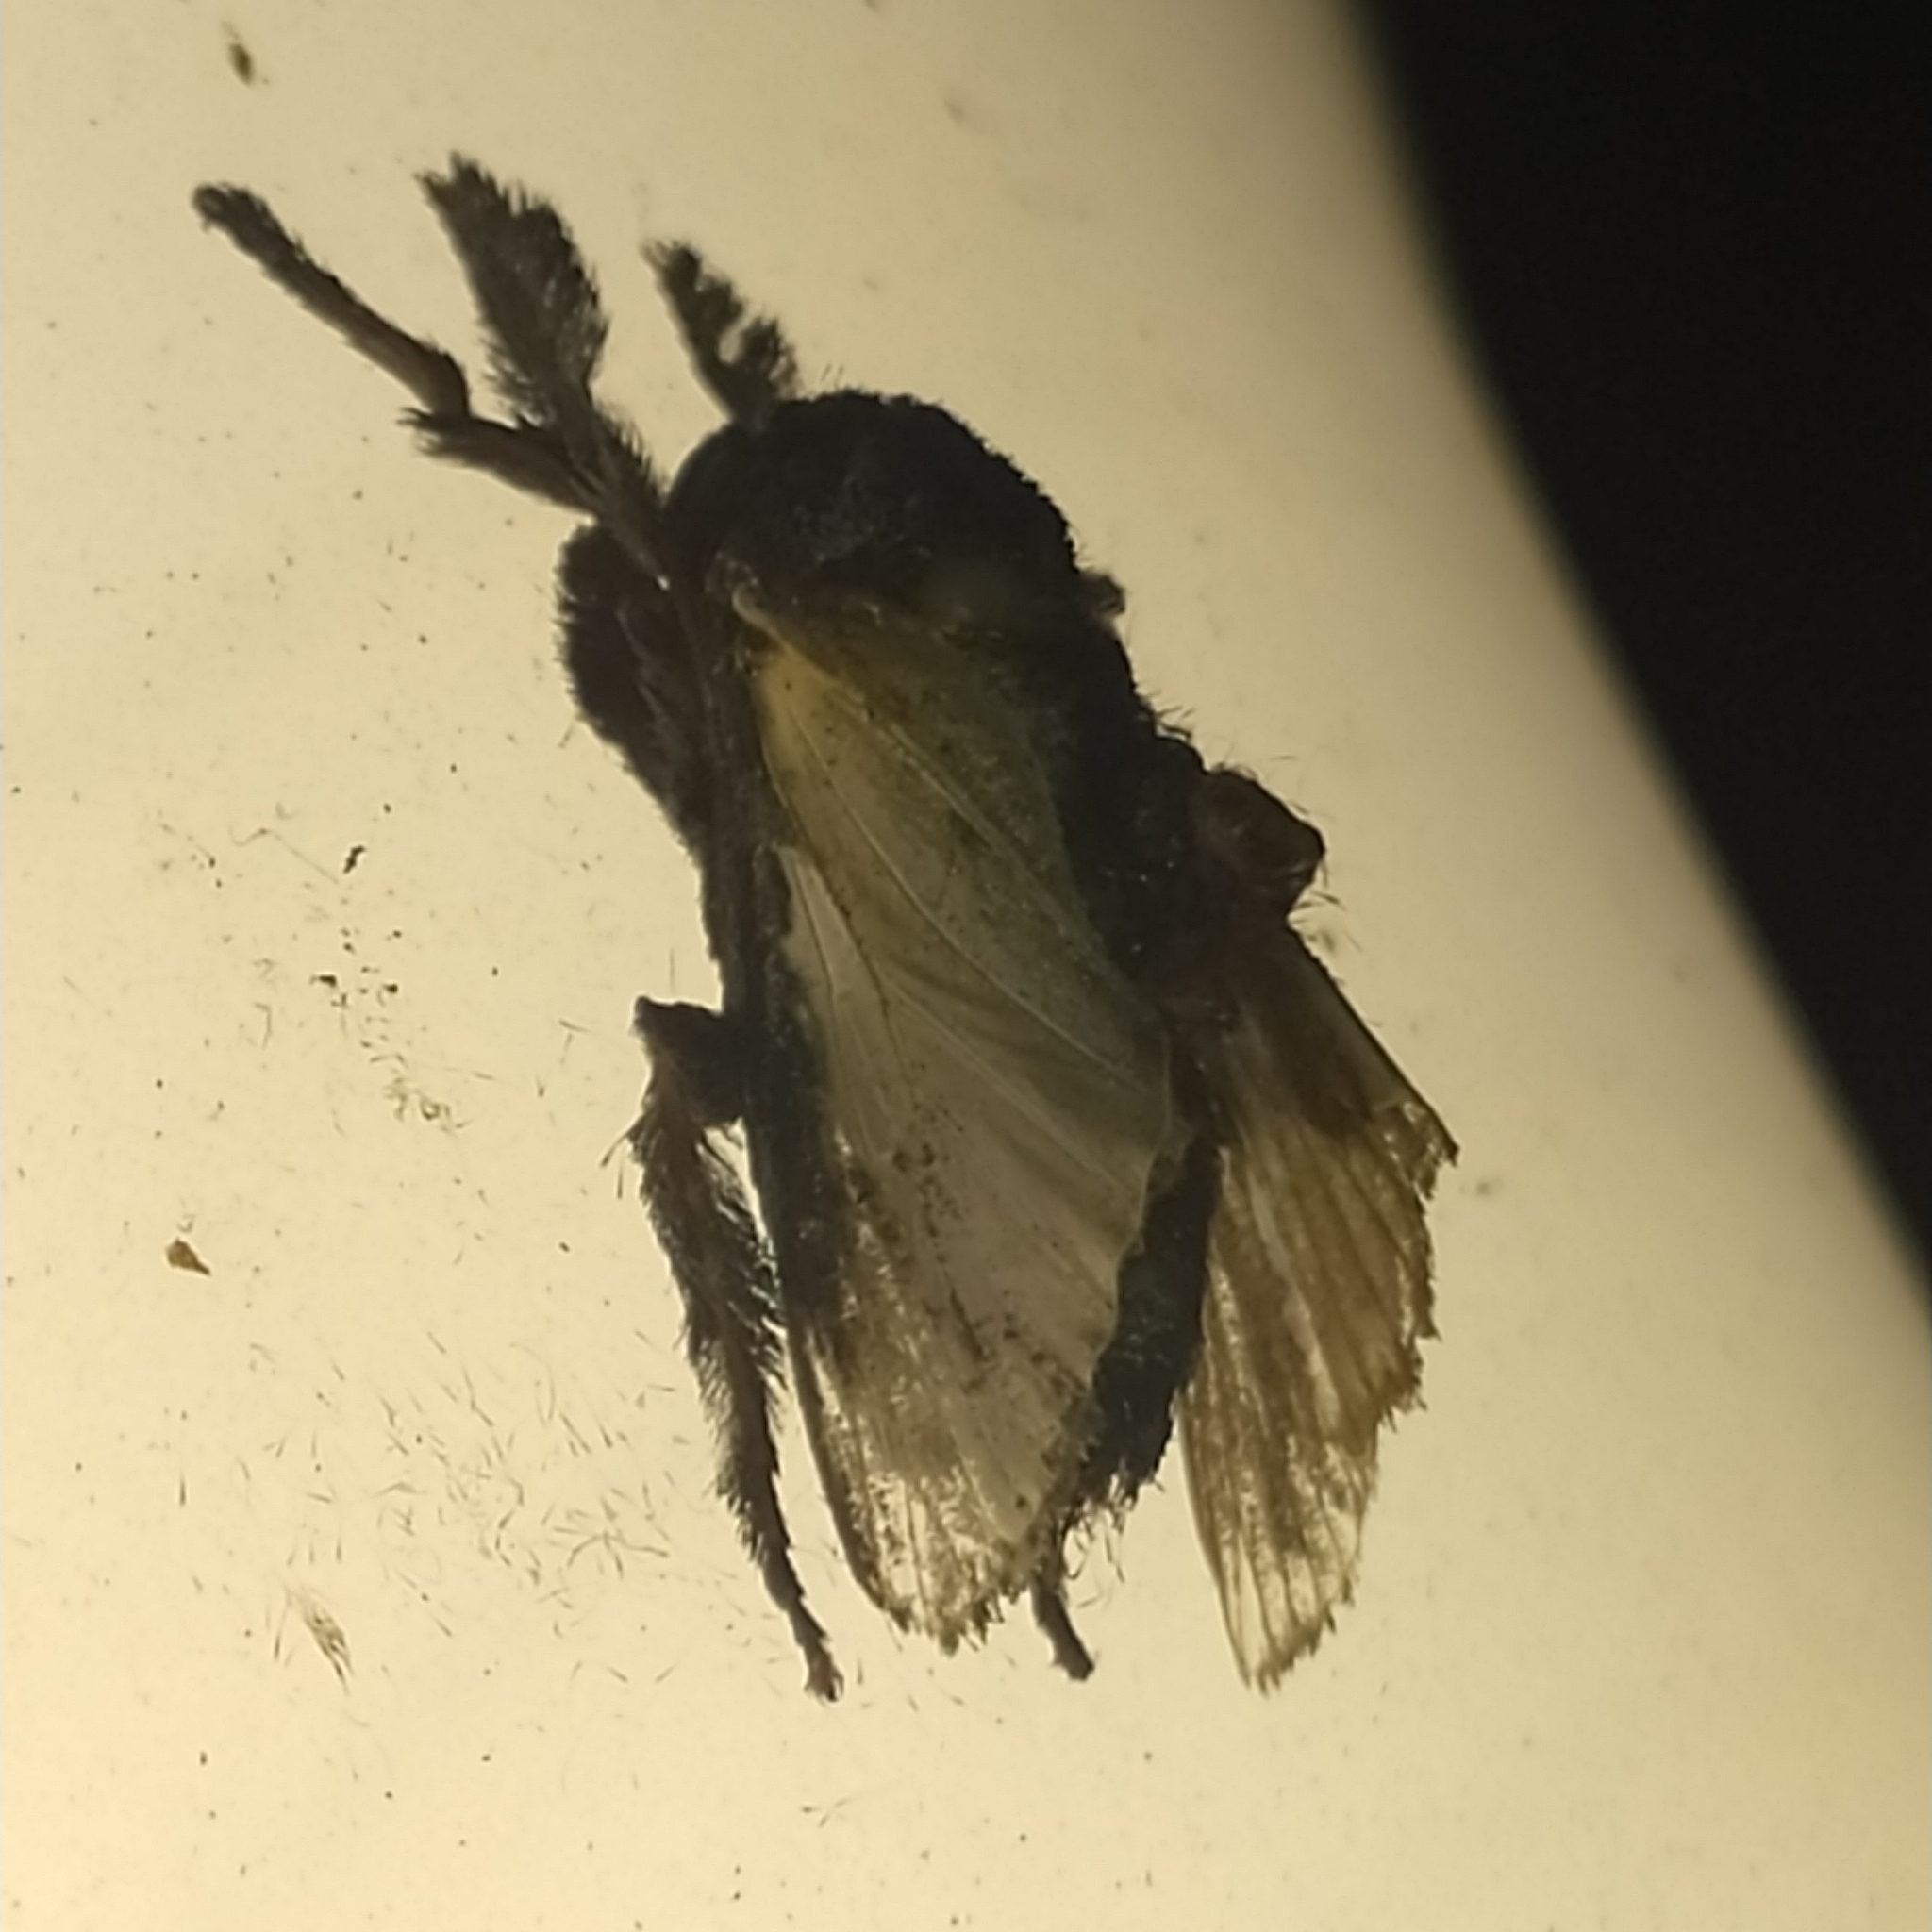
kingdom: Animalia
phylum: Arthropoda
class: Insecta
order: Lepidoptera
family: Limacodidae
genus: Acharia
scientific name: Acharia
